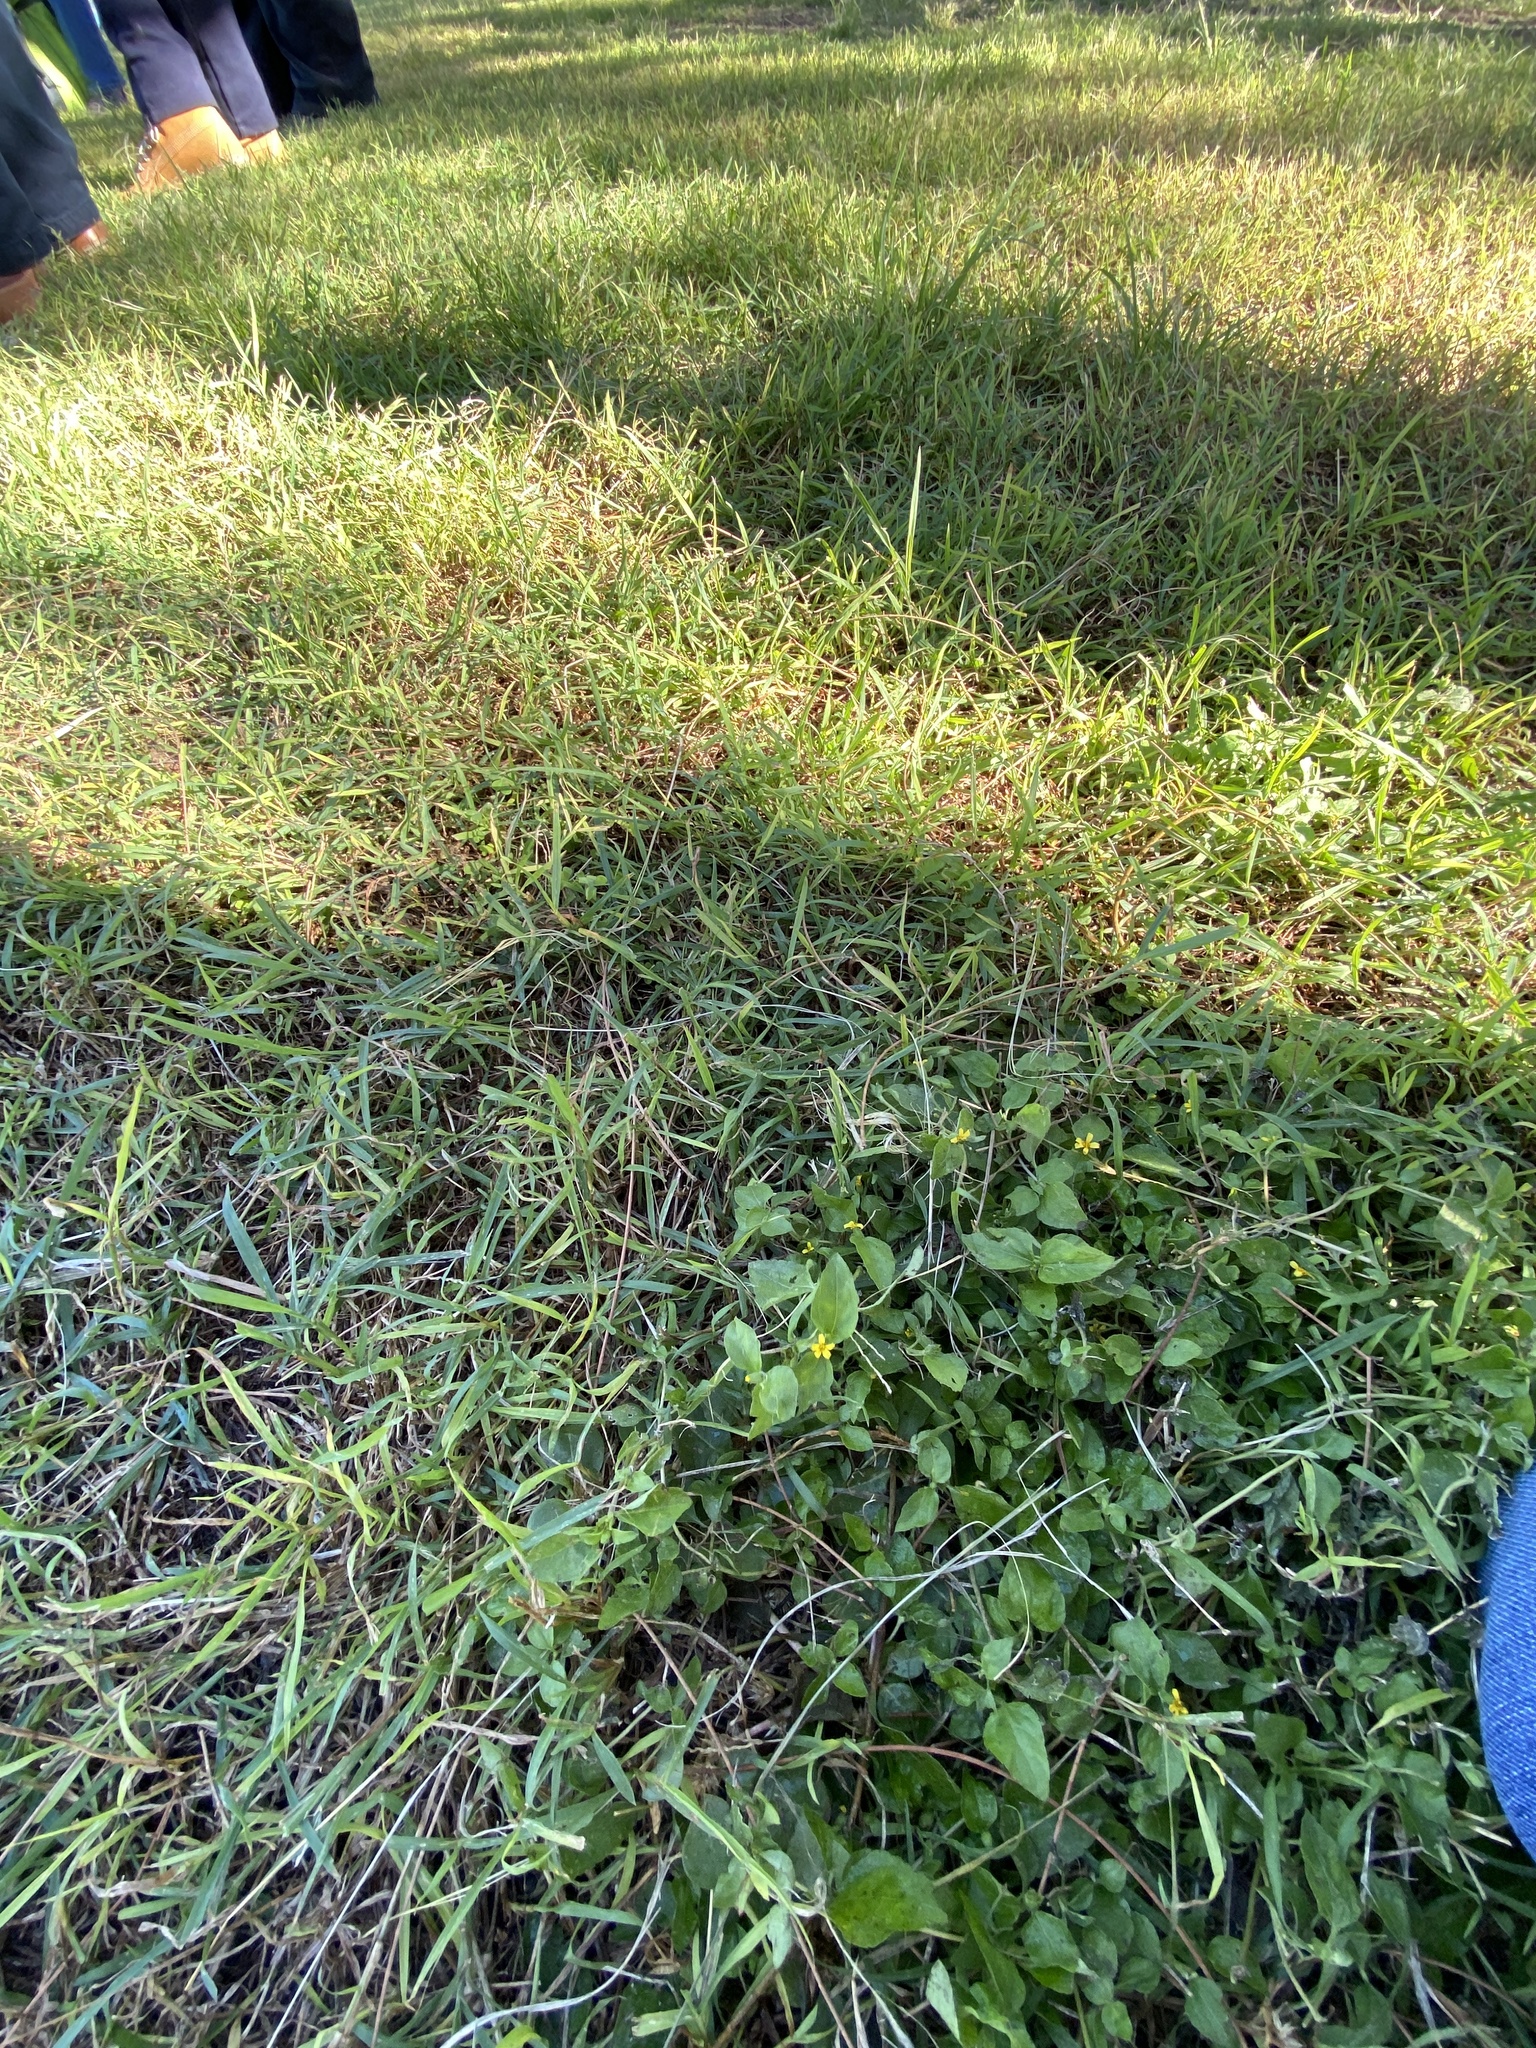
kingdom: Plantae
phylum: Tracheophyta
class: Magnoliopsida
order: Asterales
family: Asteraceae
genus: Calyptocarpus
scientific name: Calyptocarpus vialis
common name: Straggler daisy
